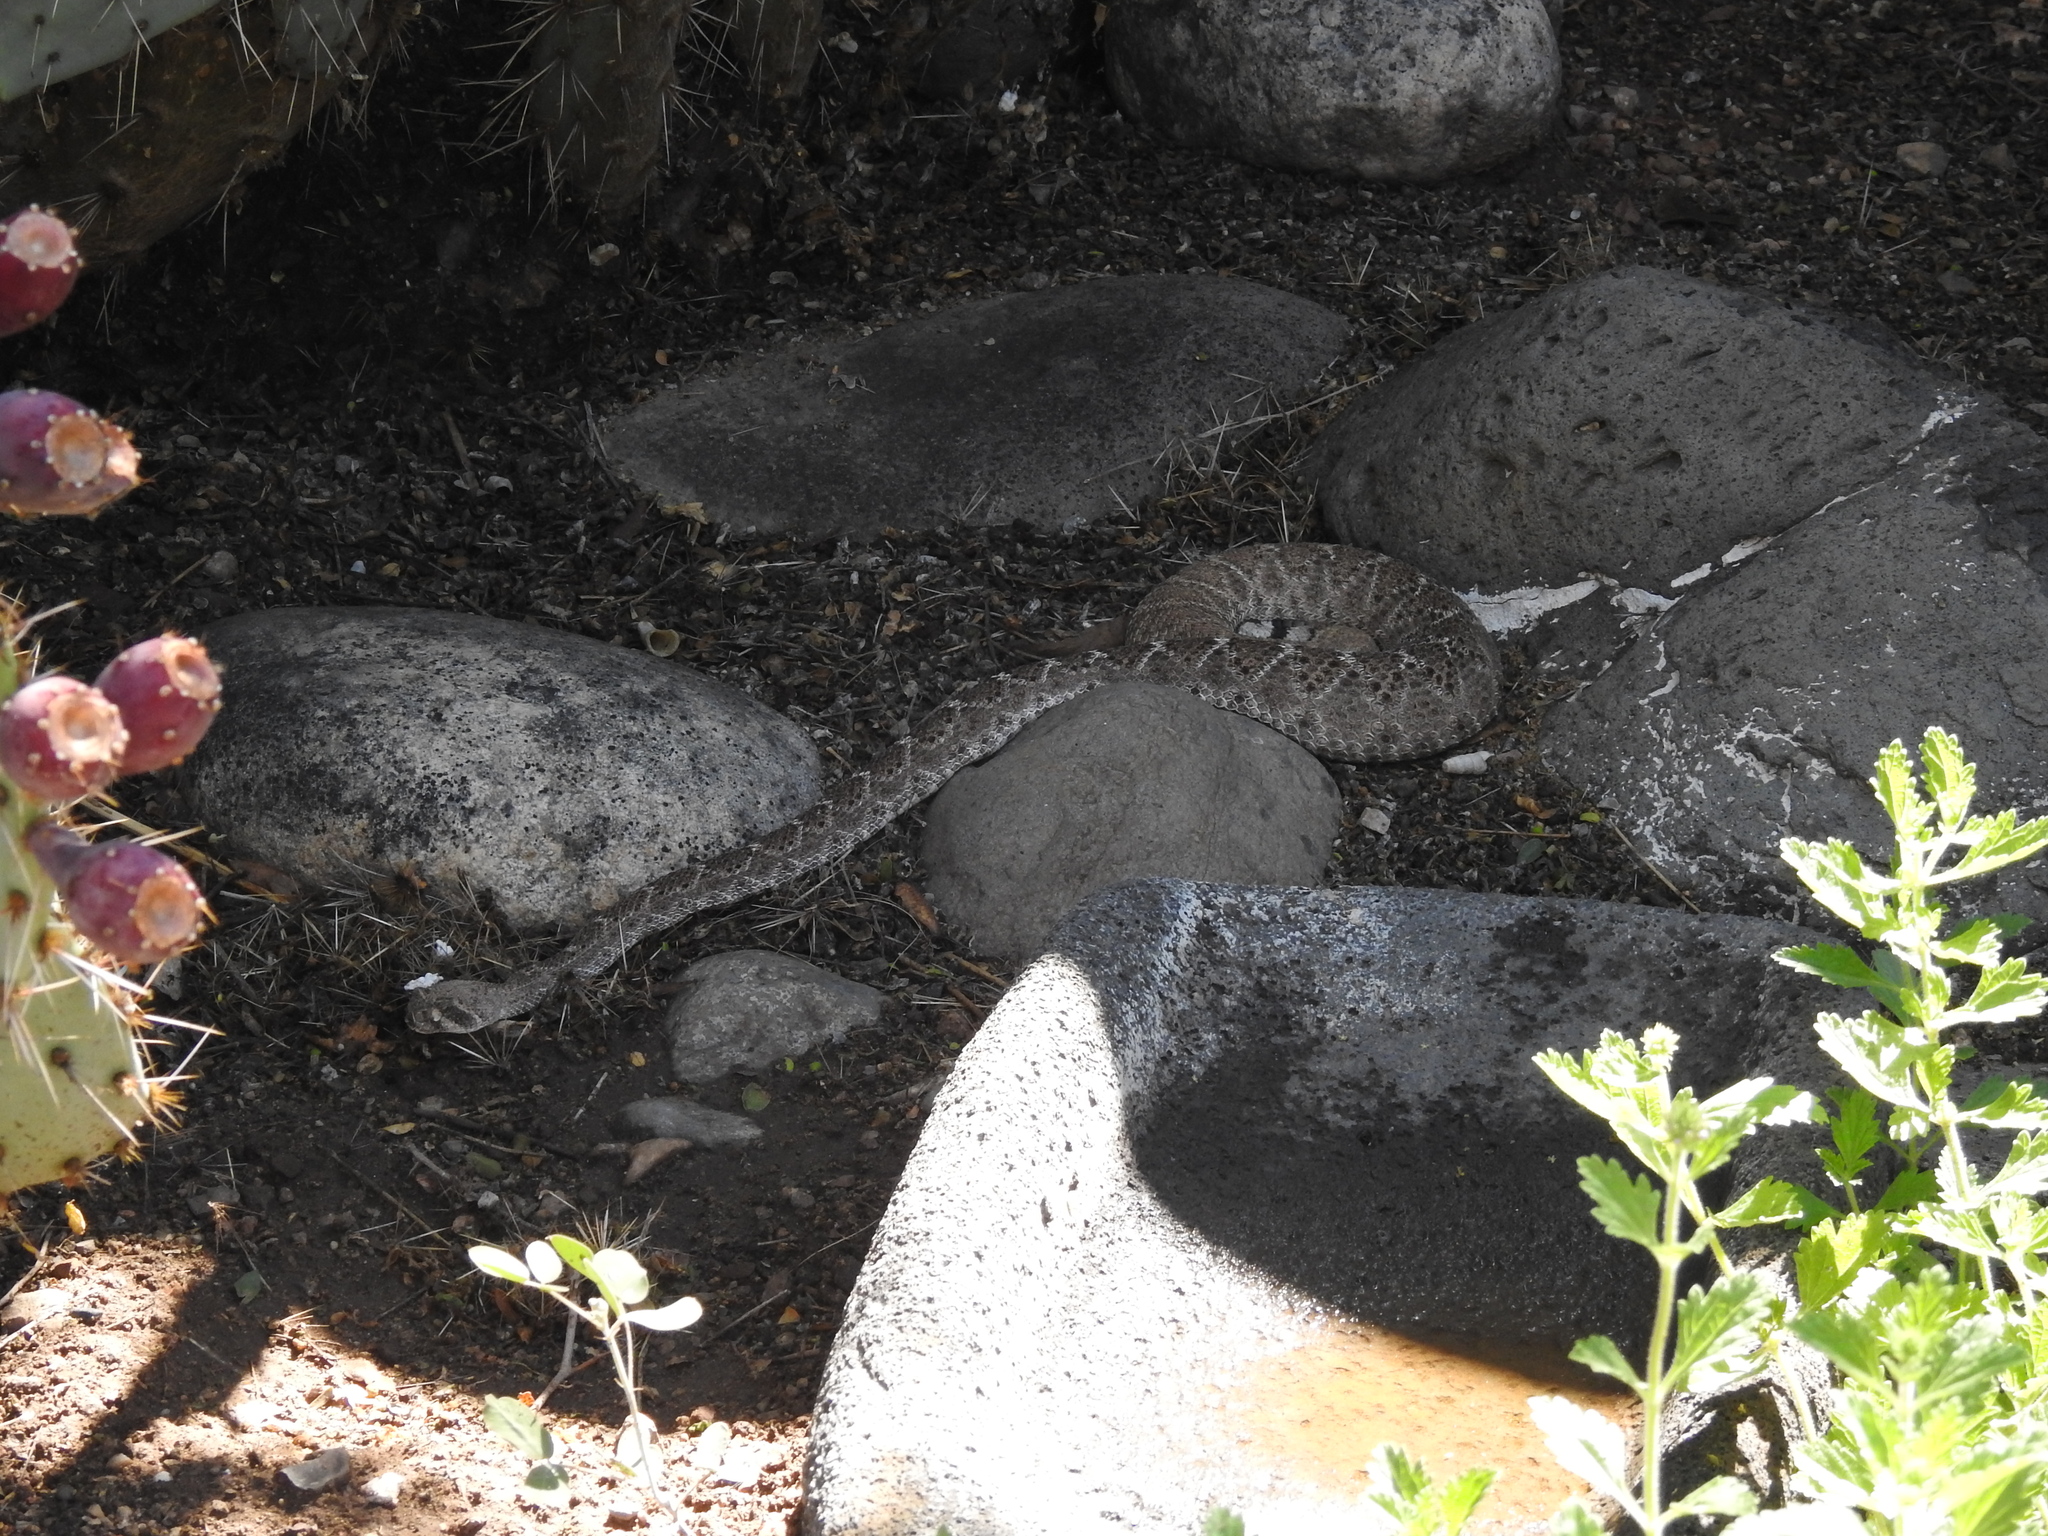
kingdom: Animalia
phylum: Chordata
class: Squamata
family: Viperidae
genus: Crotalus
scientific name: Crotalus atrox
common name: Western diamond-backed rattlesnake
